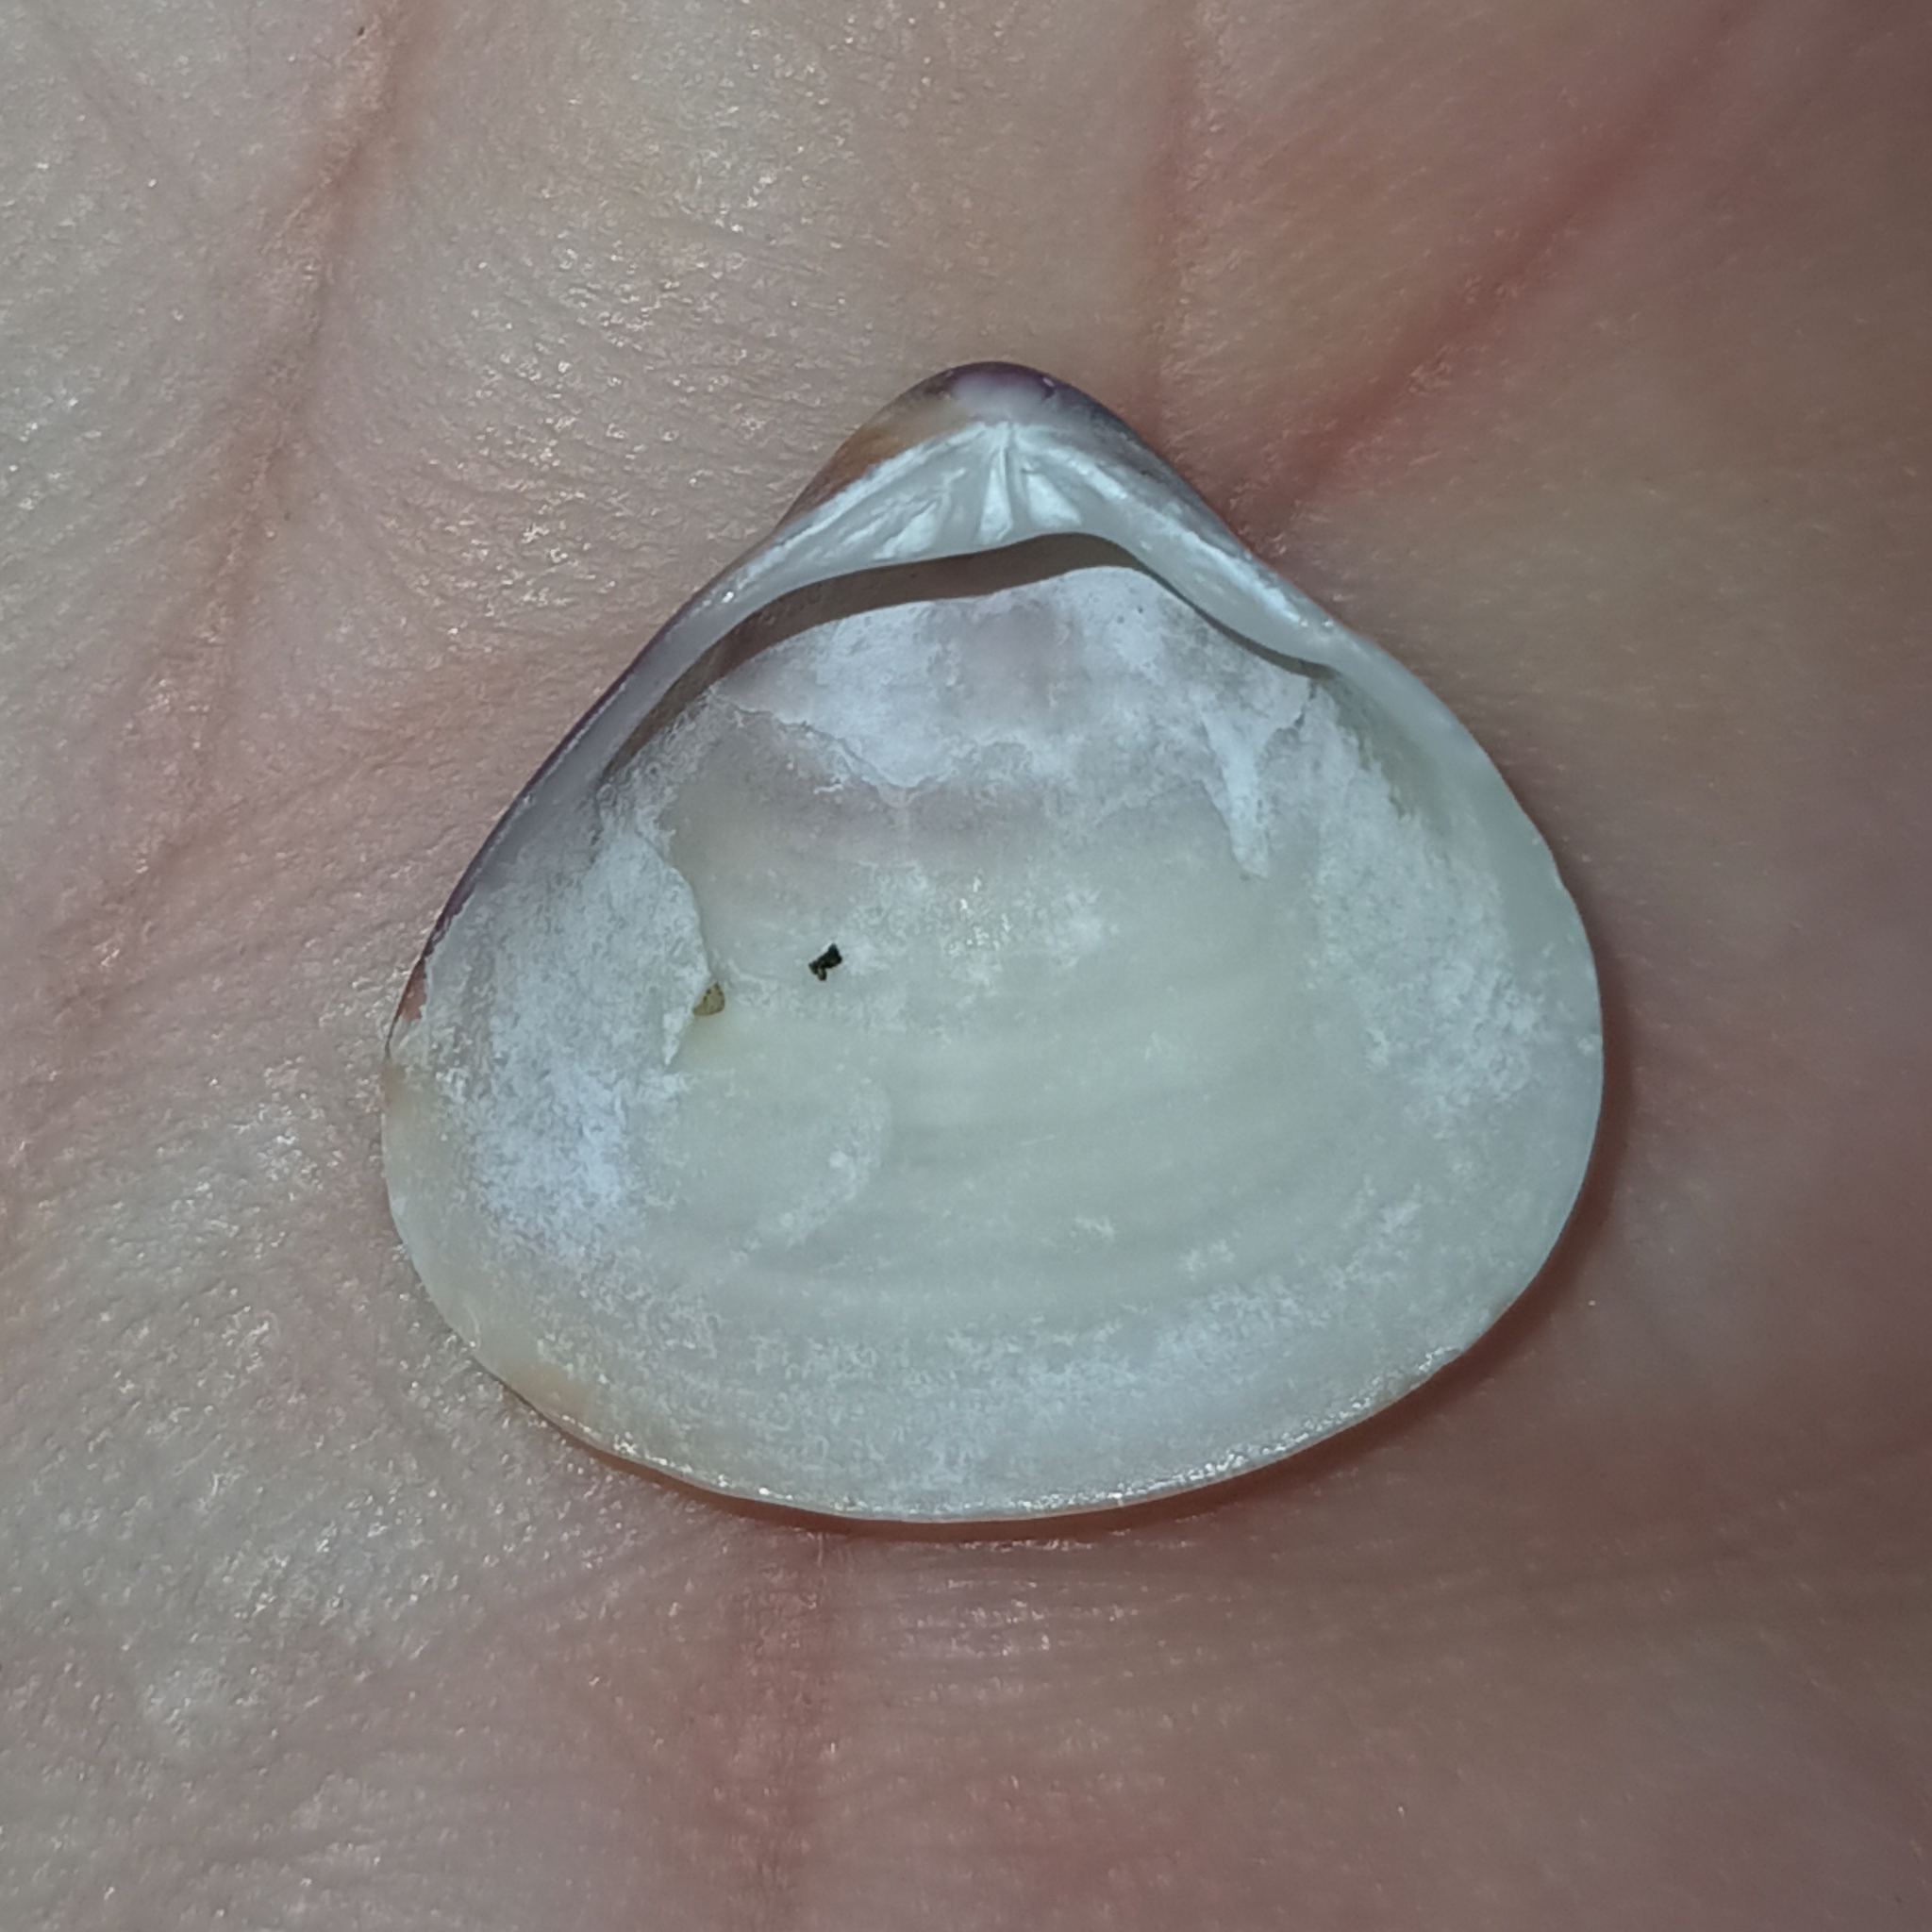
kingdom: Animalia
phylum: Mollusca
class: Bivalvia
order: Venerida
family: Veneridae
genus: Tivela
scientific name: Tivela mactroides
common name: Trigonal tivela
